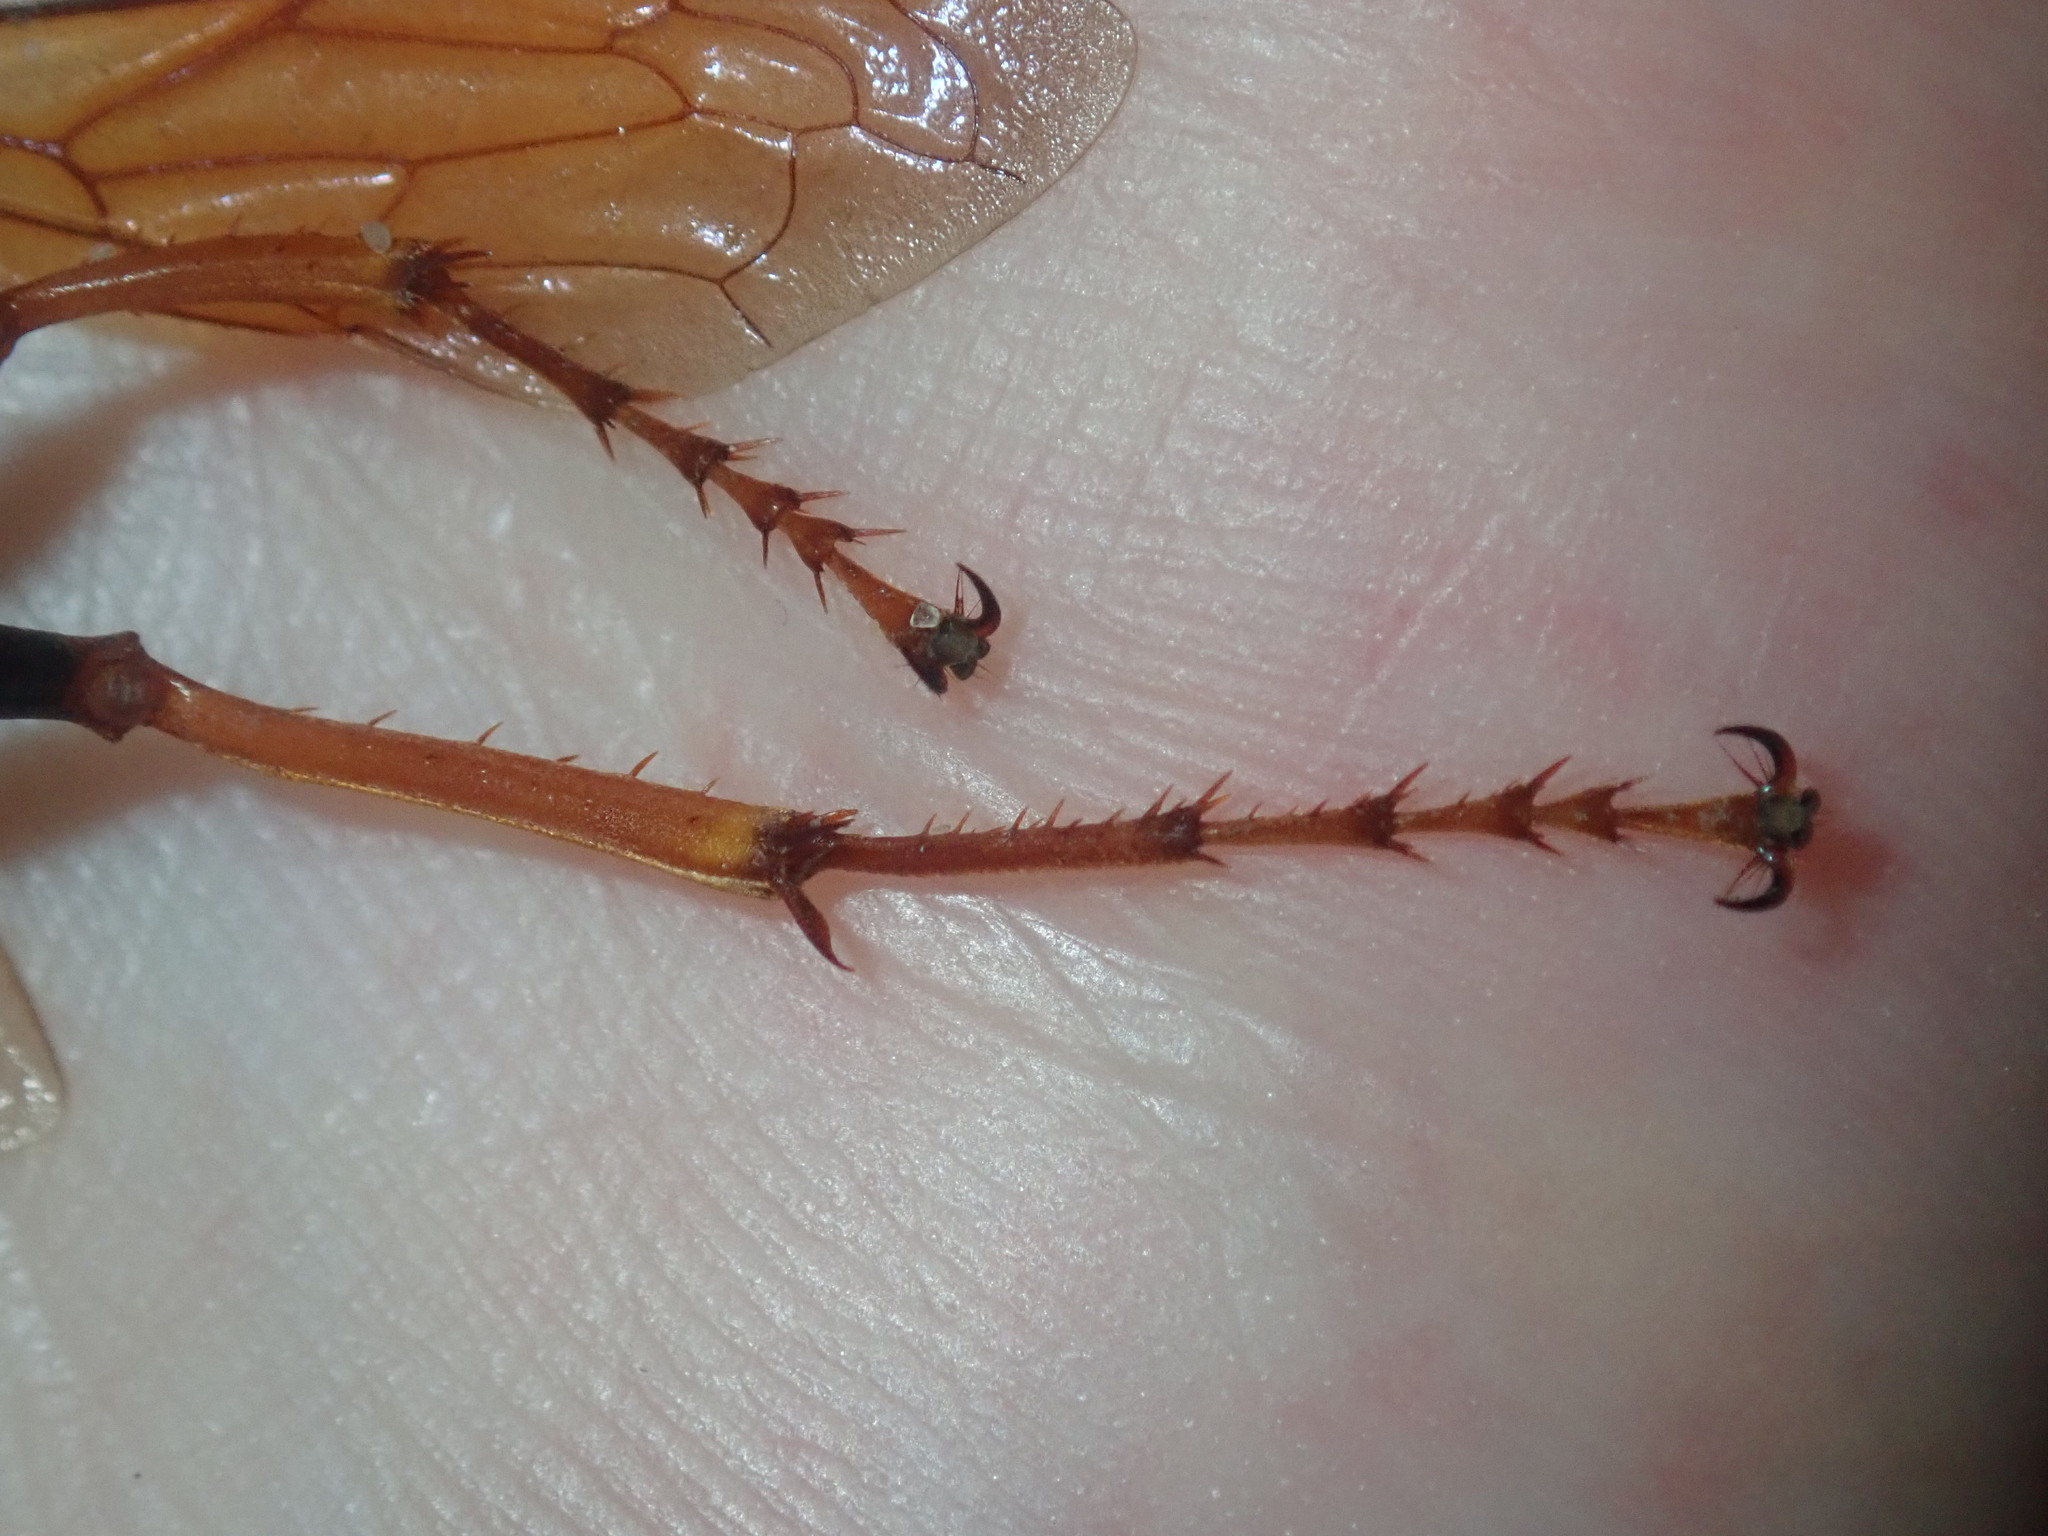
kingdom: Animalia
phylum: Arthropoda
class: Insecta
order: Hymenoptera
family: Crabronidae
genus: Exeirus
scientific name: Exeirus lateritius
